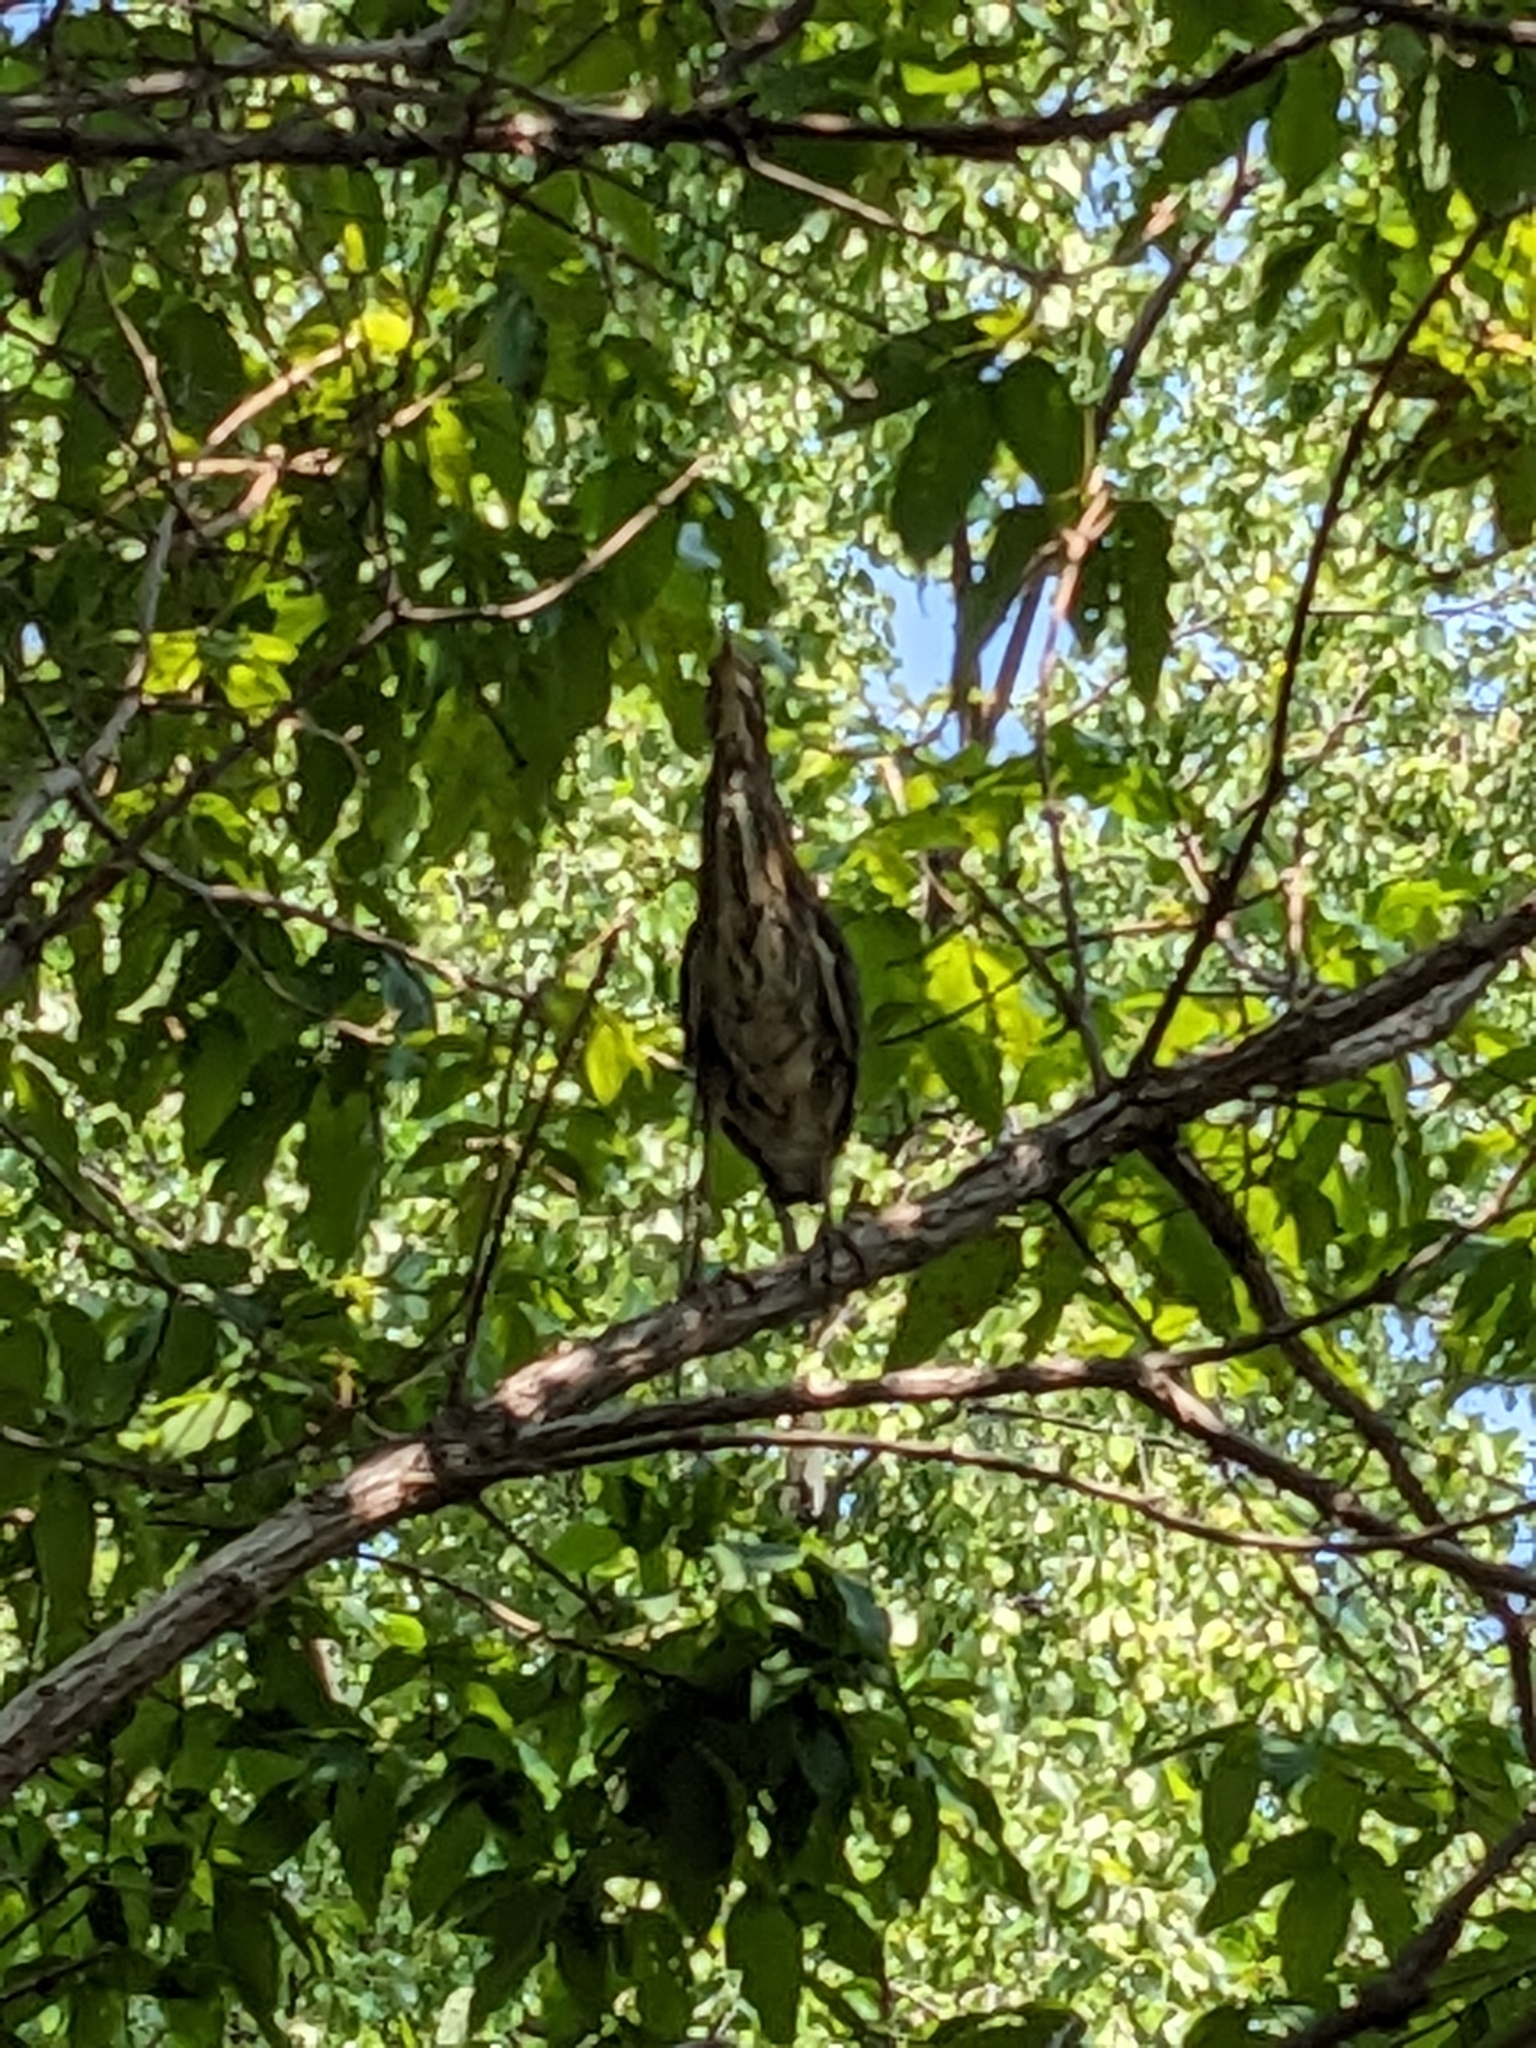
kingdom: Animalia
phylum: Chordata
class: Aves
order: Pelecaniformes
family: Ardeidae
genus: Butorides
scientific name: Butorides virescens
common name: Green heron
